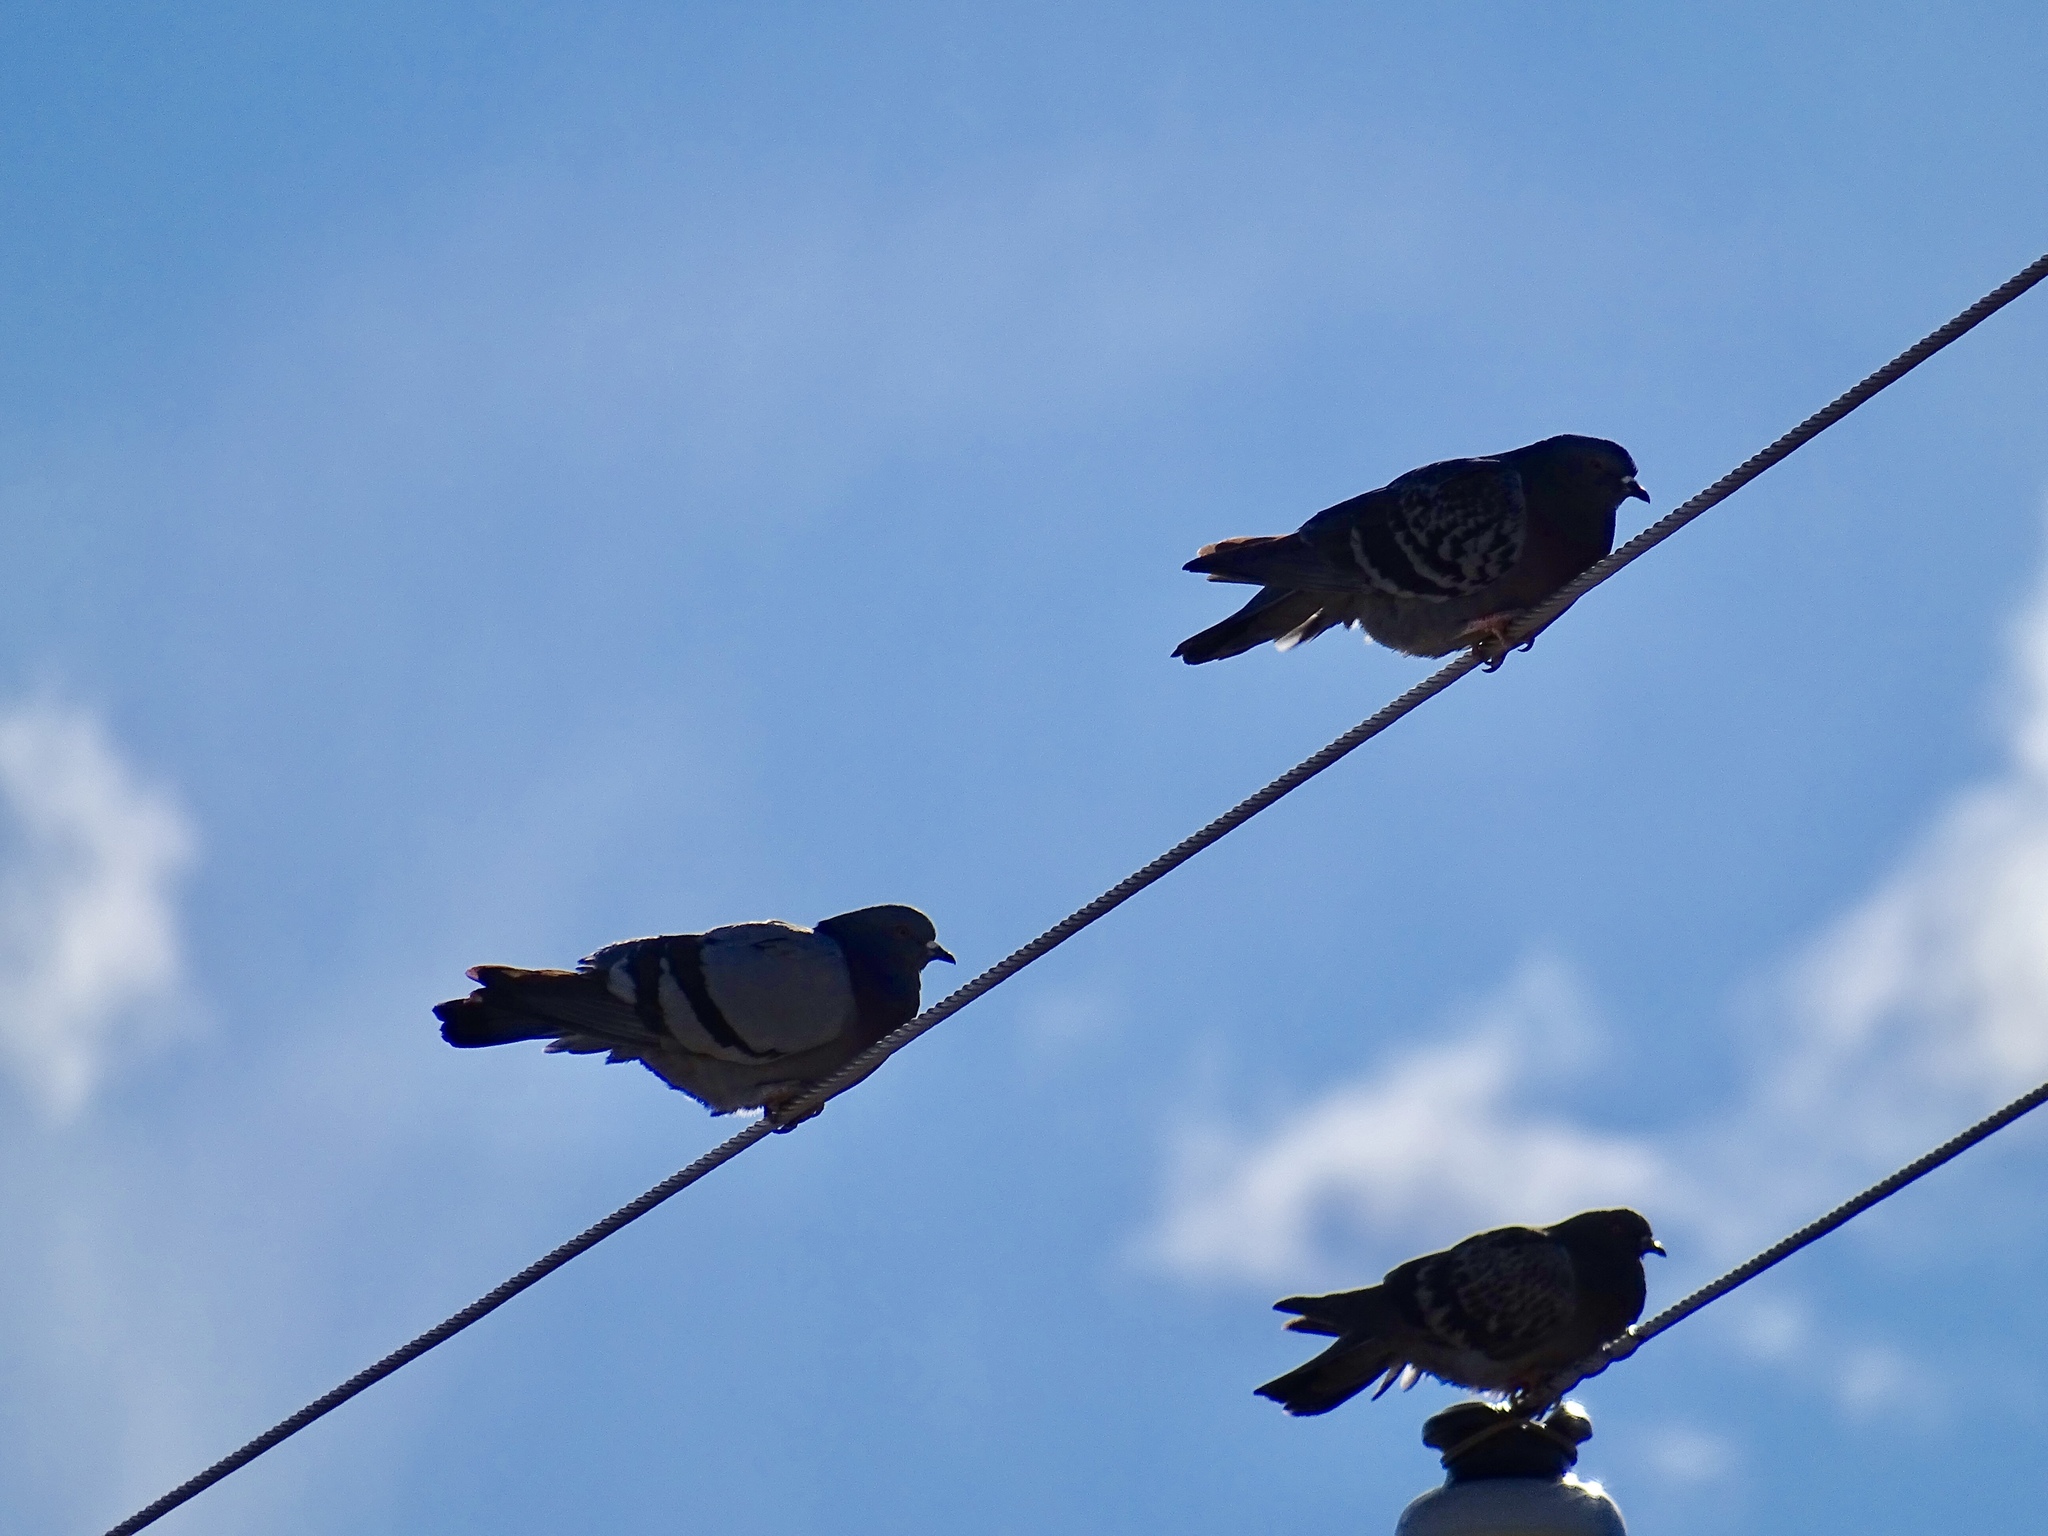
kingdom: Animalia
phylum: Chordata
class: Aves
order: Columbiformes
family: Columbidae
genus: Columba
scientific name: Columba livia
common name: Rock pigeon
